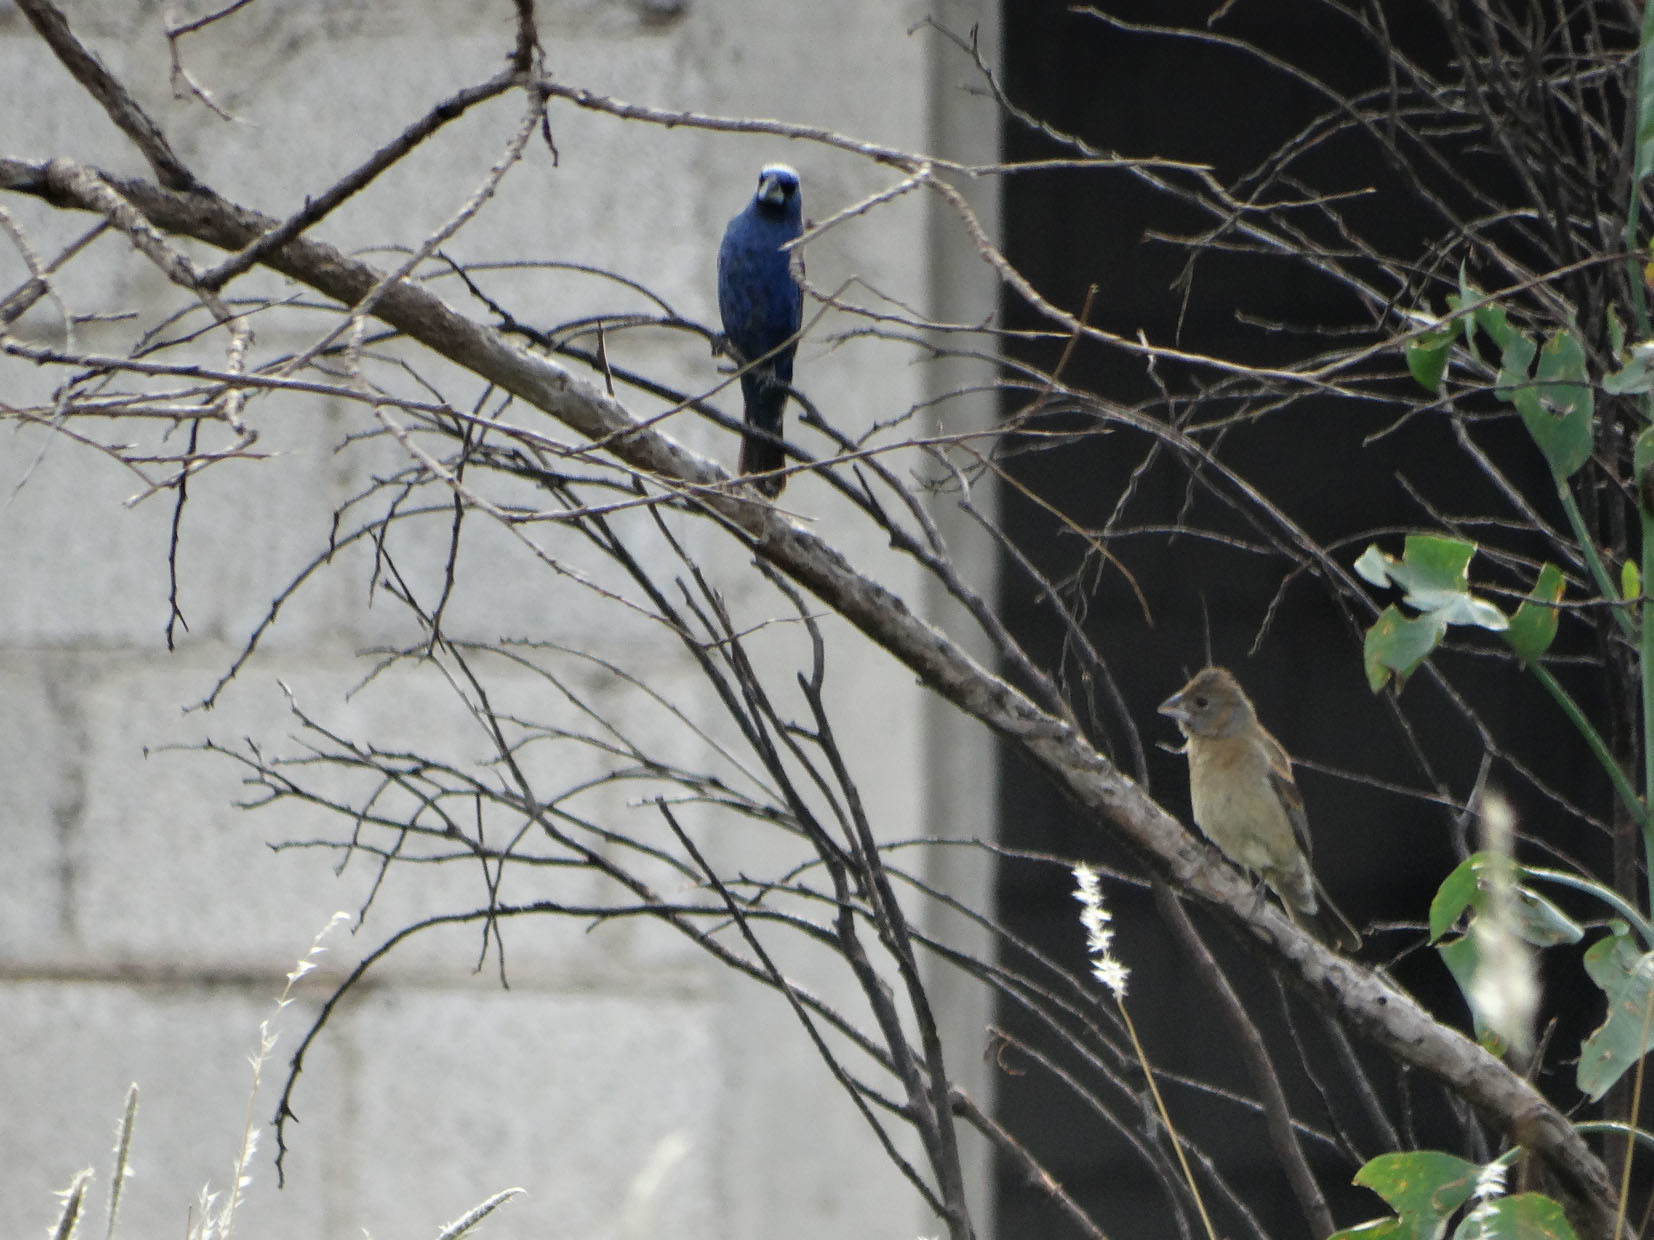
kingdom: Animalia
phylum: Chordata
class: Aves
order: Passeriformes
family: Cardinalidae
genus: Passerina
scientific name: Passerina caerulea
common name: Blue grosbeak
